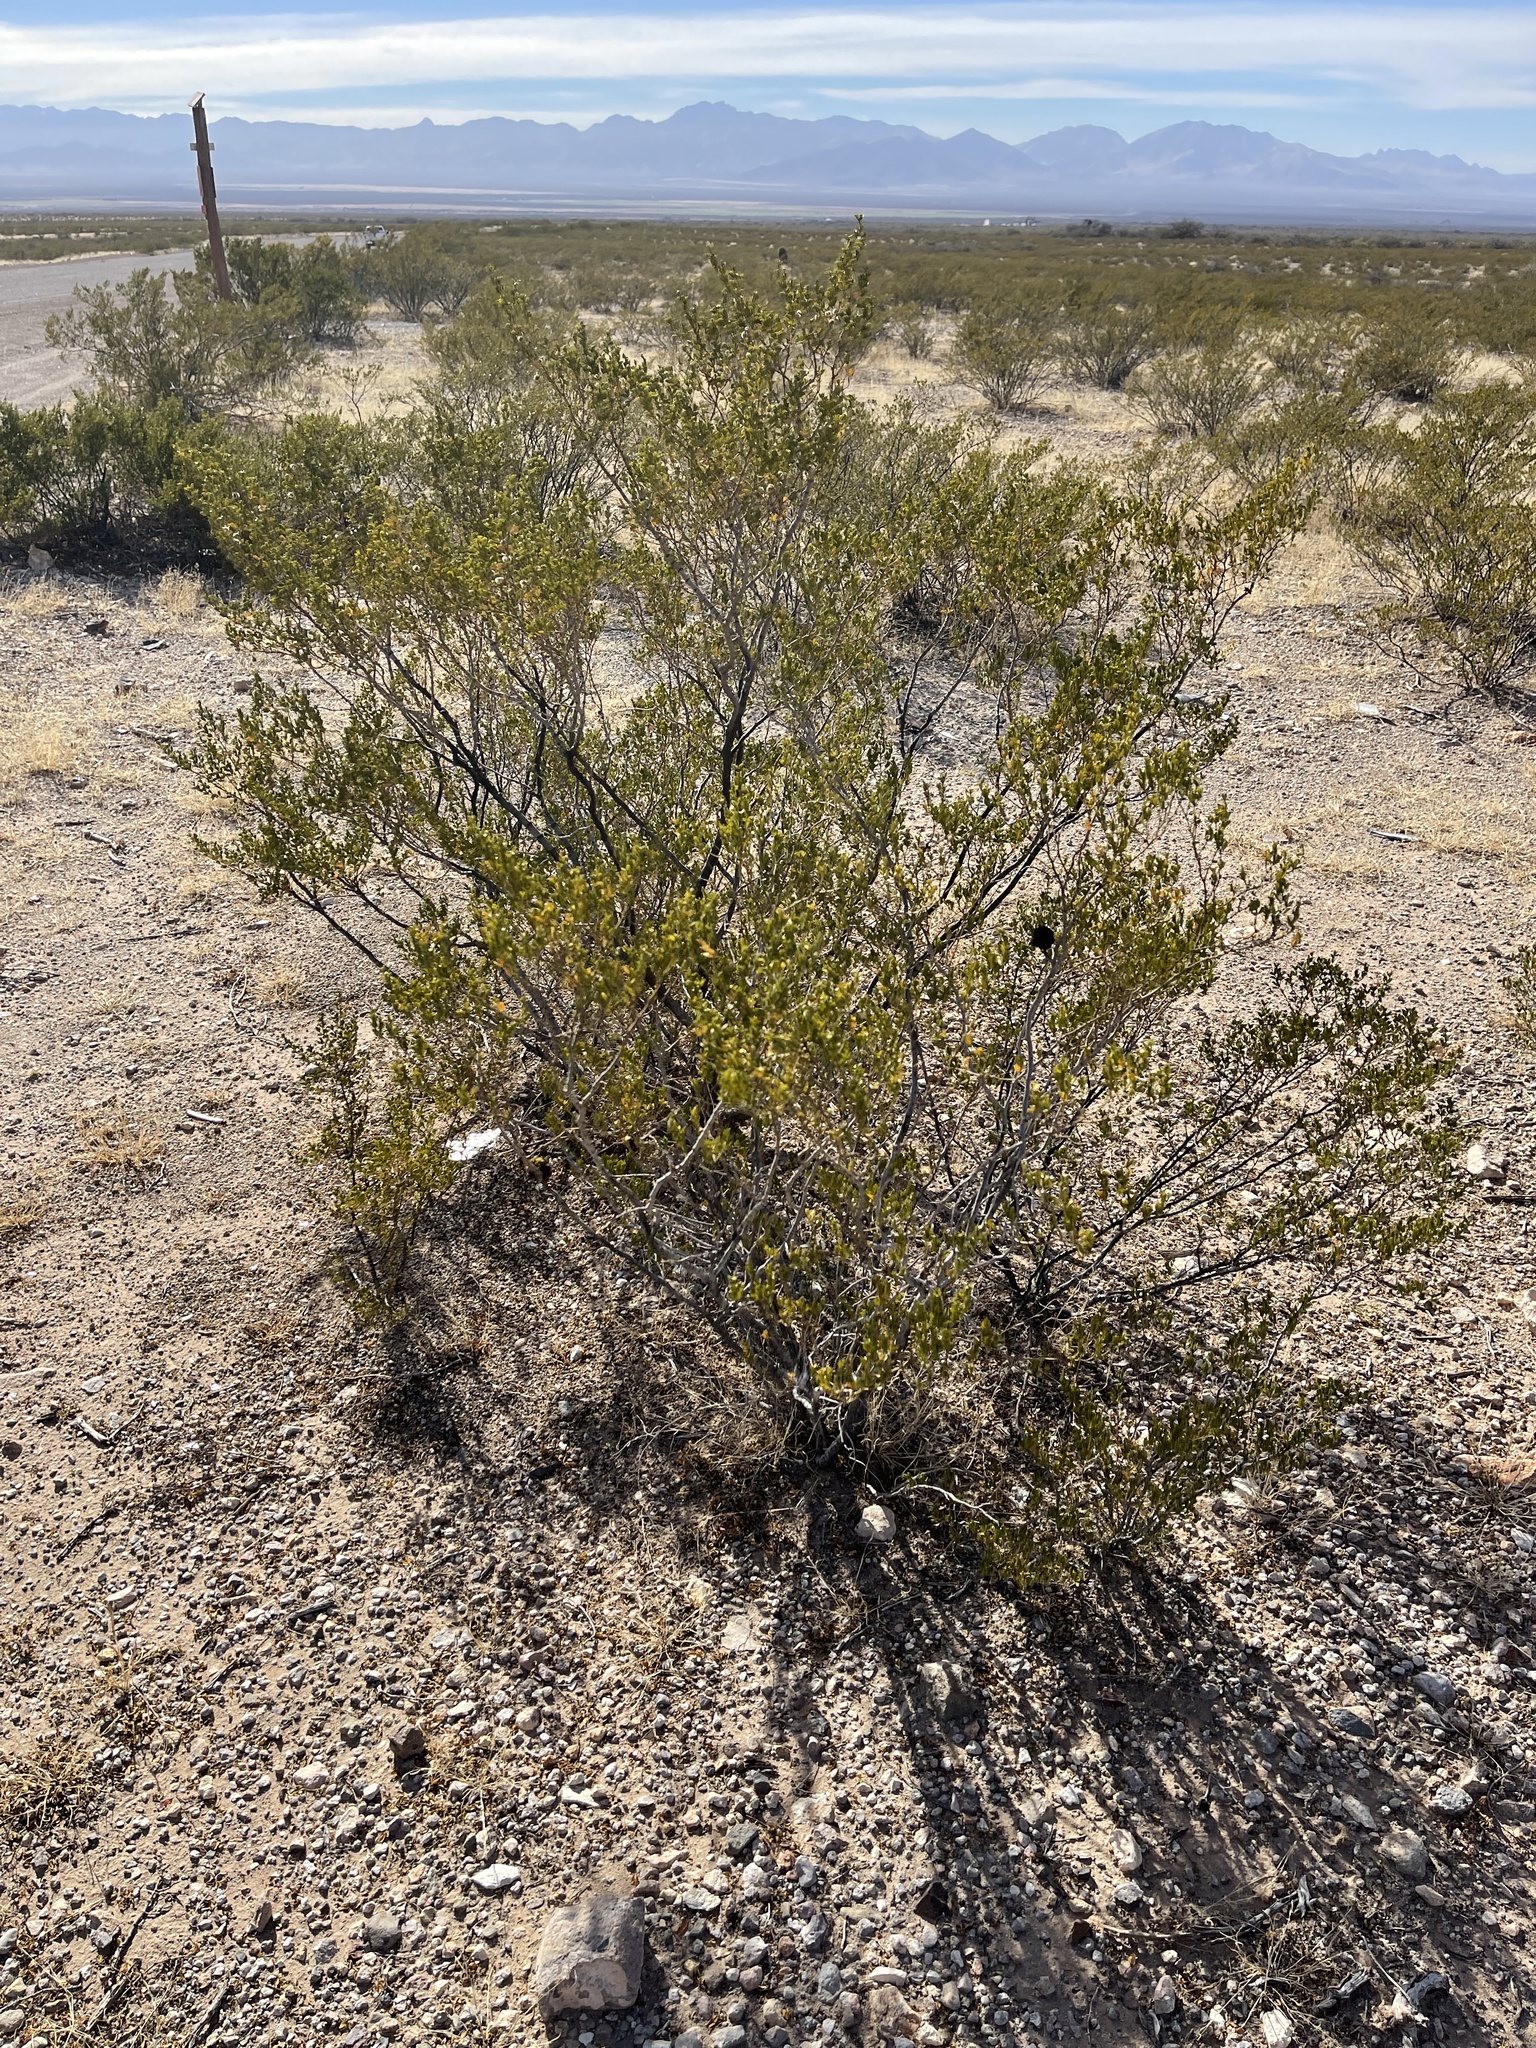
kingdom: Plantae
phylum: Tracheophyta
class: Magnoliopsida
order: Zygophyllales
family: Zygophyllaceae
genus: Larrea
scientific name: Larrea tridentata
